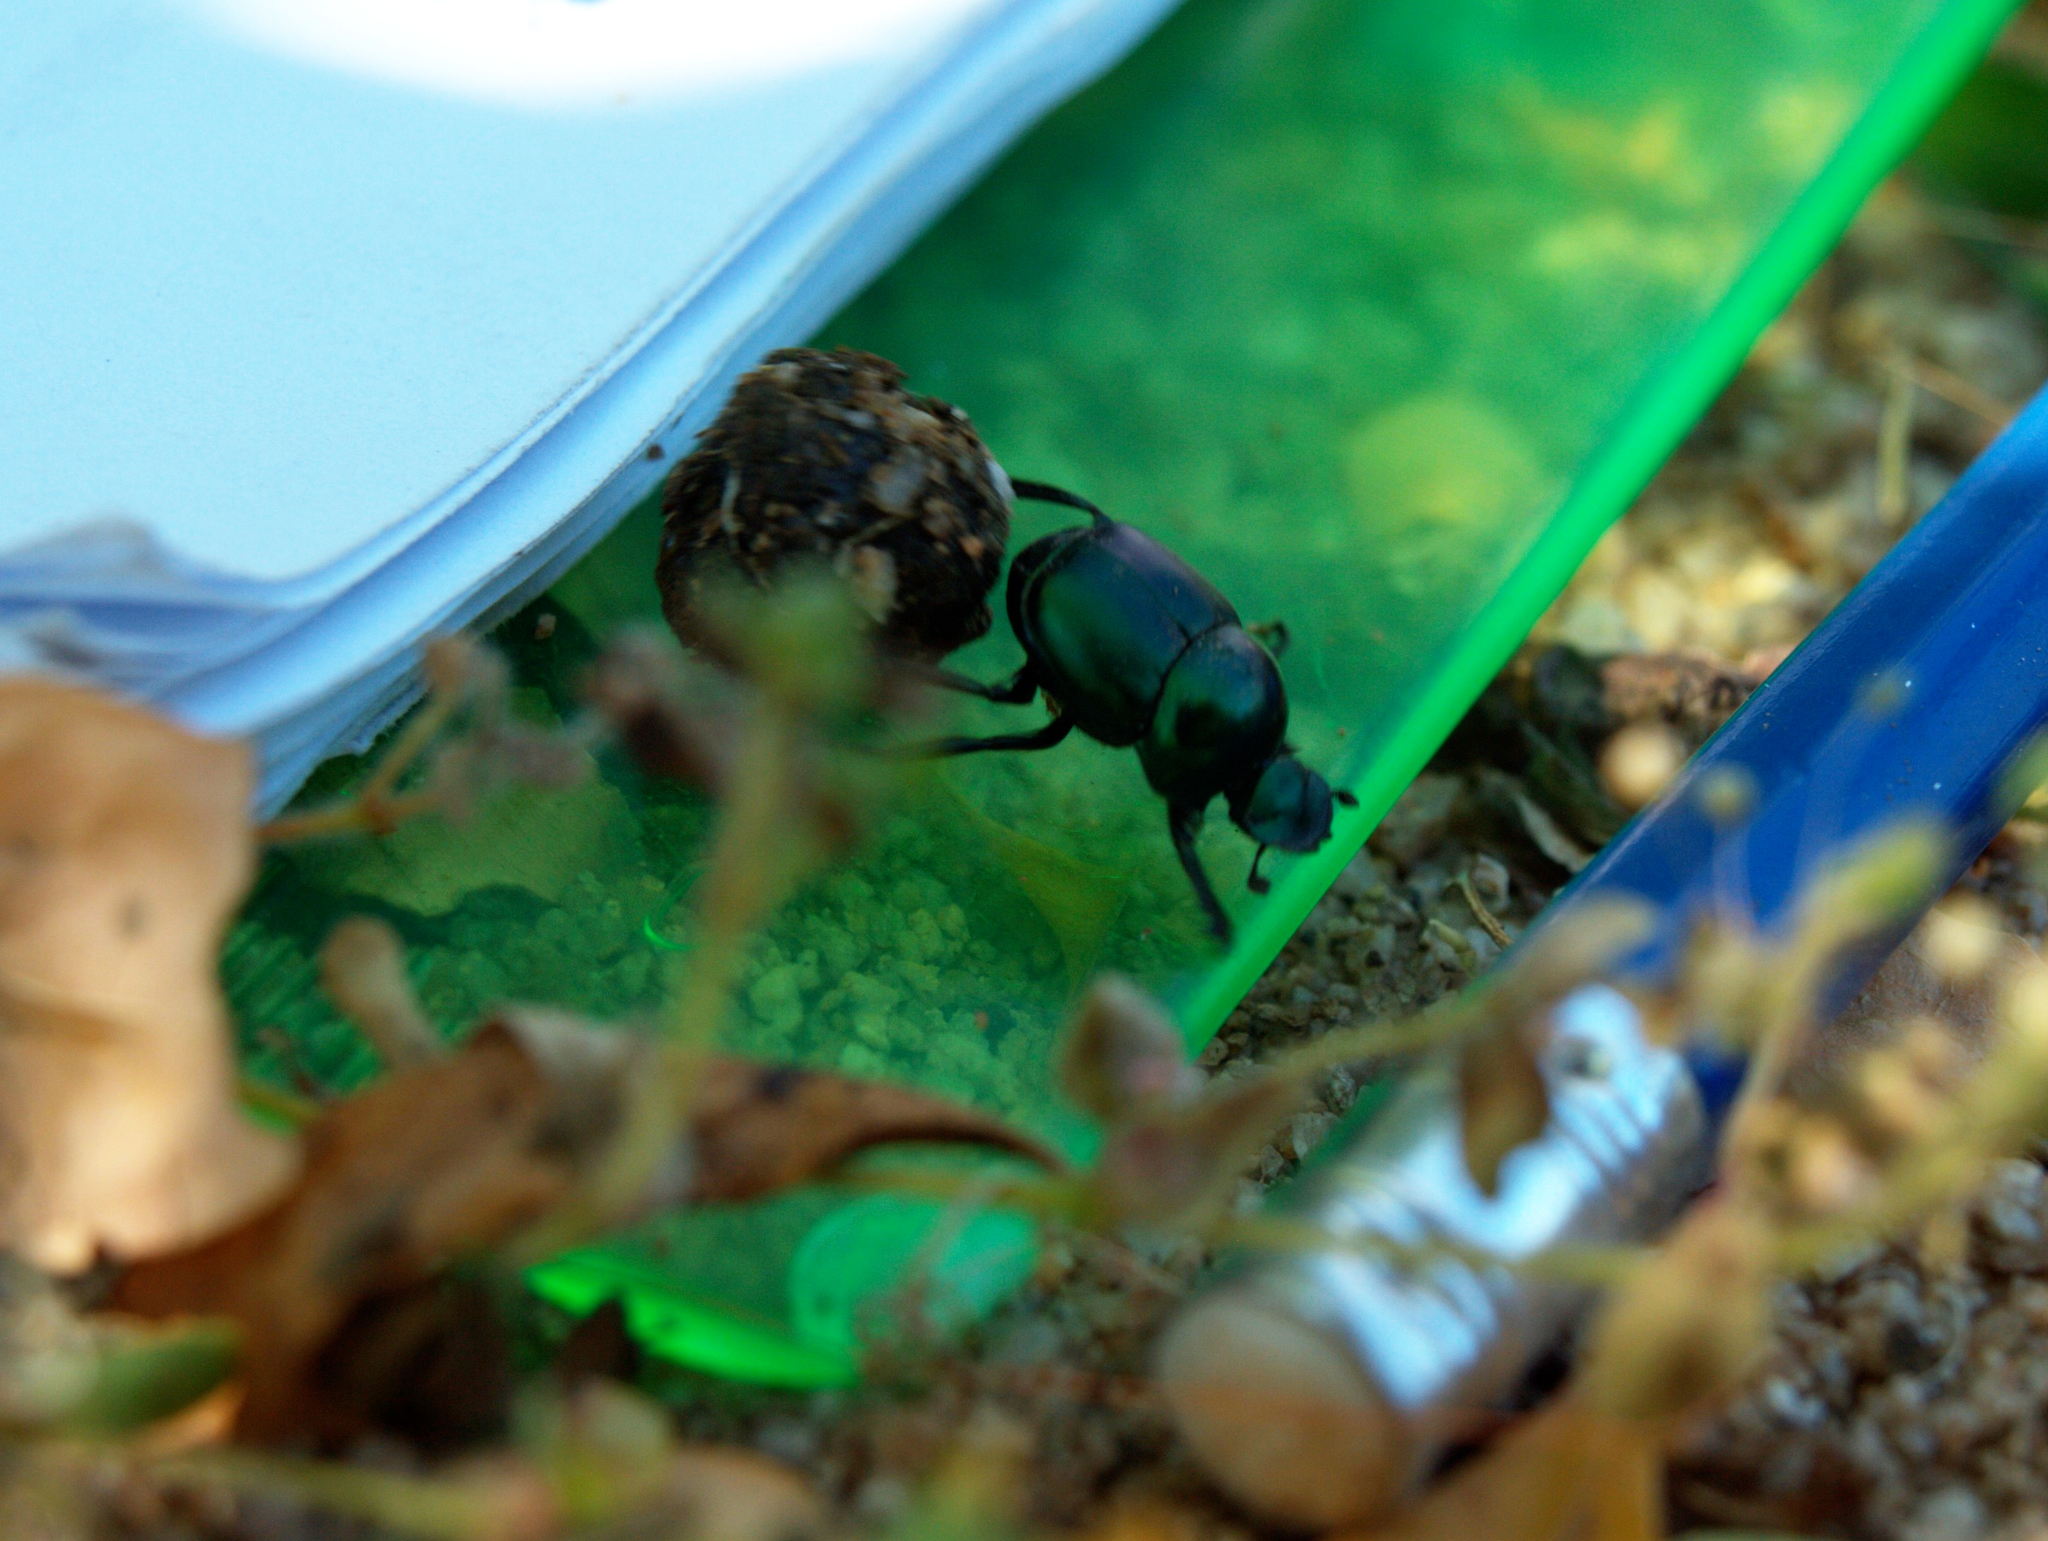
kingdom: Animalia
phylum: Arthropoda
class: Insecta
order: Coleoptera
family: Scarabaeidae
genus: Canthon
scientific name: Canthon indigaceus
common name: Tumblebug
